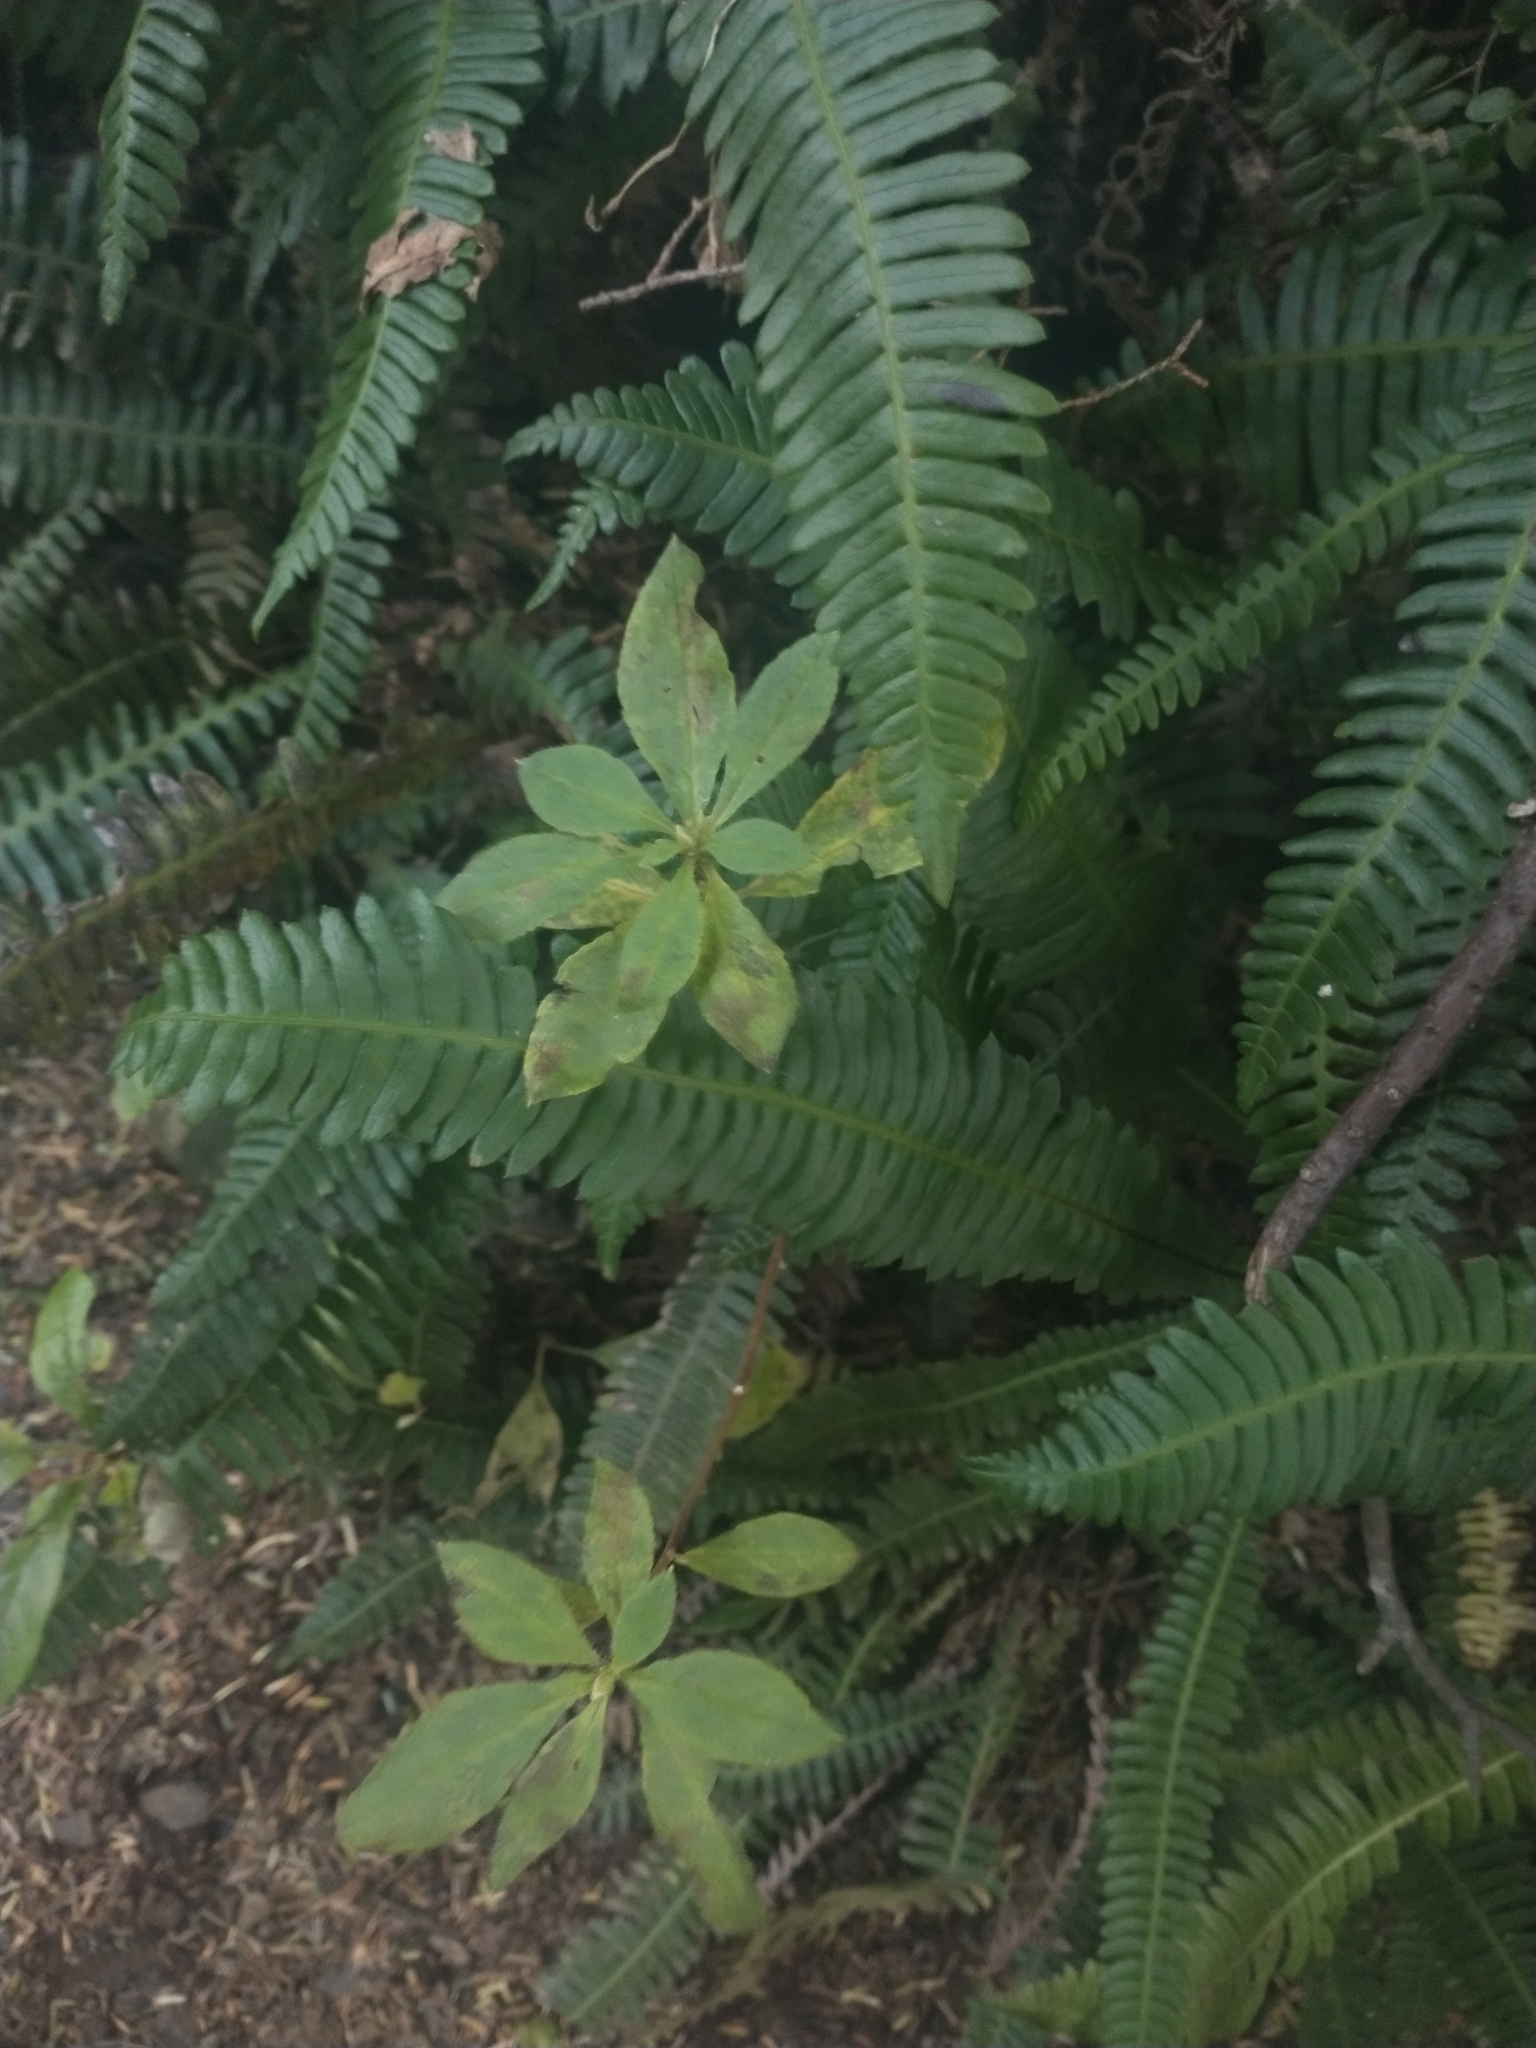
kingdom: Plantae
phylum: Tracheophyta
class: Polypodiopsida
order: Polypodiales
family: Blechnaceae
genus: Struthiopteris
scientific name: Struthiopteris spicant
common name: Deer fern
